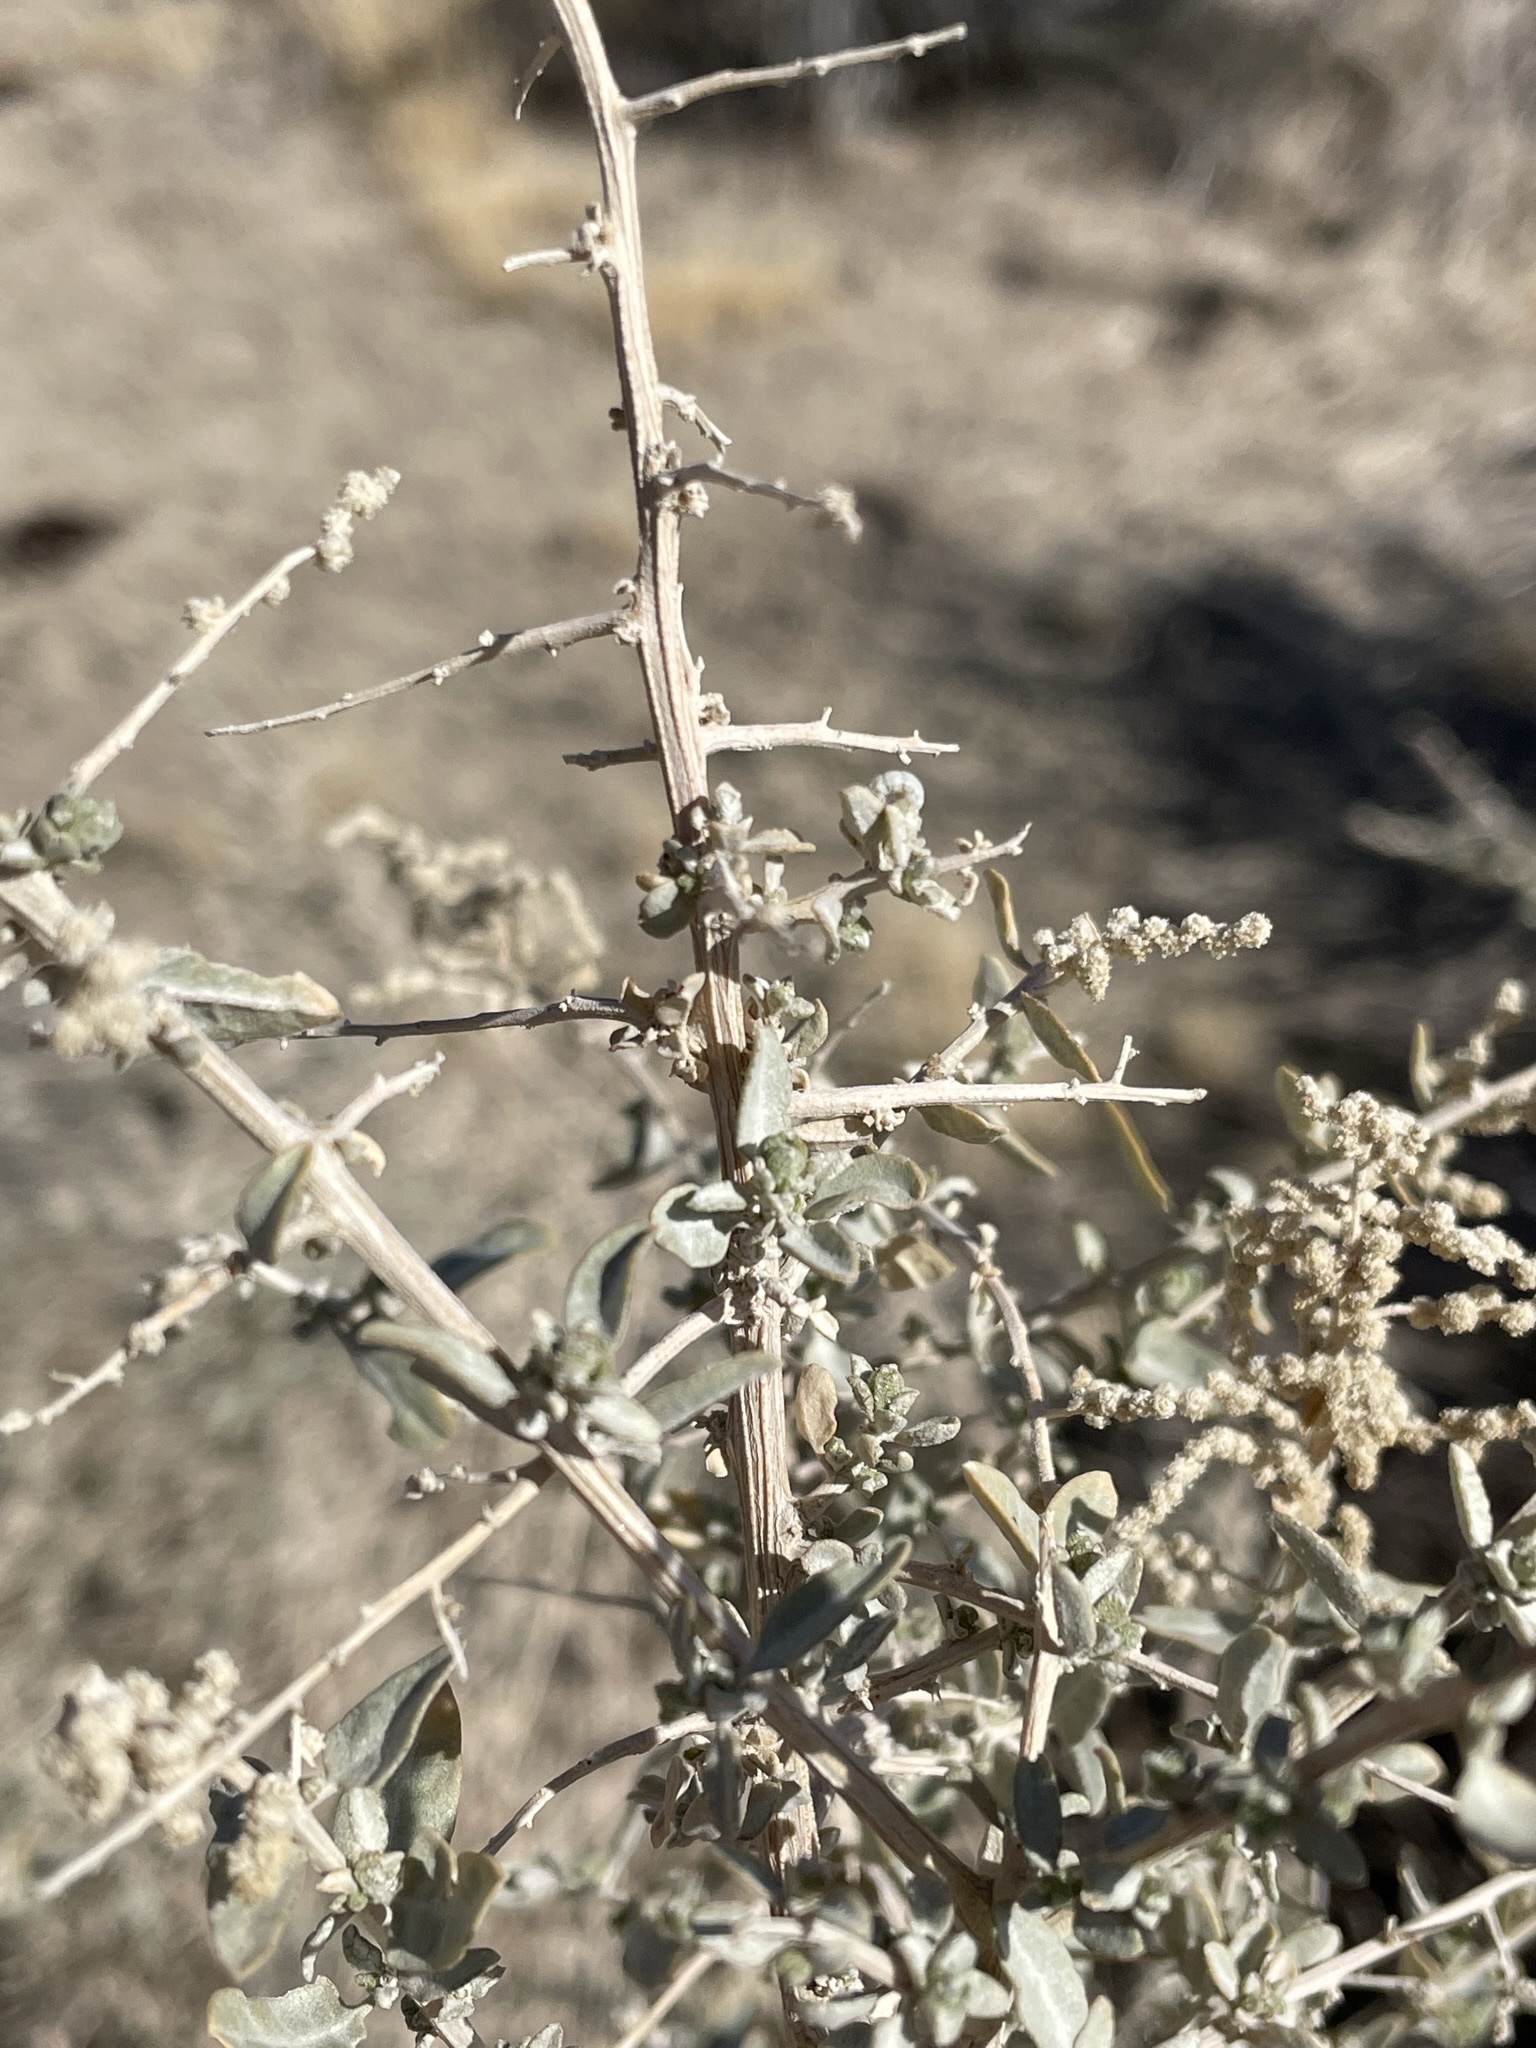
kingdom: Plantae
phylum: Tracheophyta
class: Magnoliopsida
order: Caryophyllales
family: Amaranthaceae
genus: Atriplex
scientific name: Atriplex torreyi
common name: Torrey's saltbush
